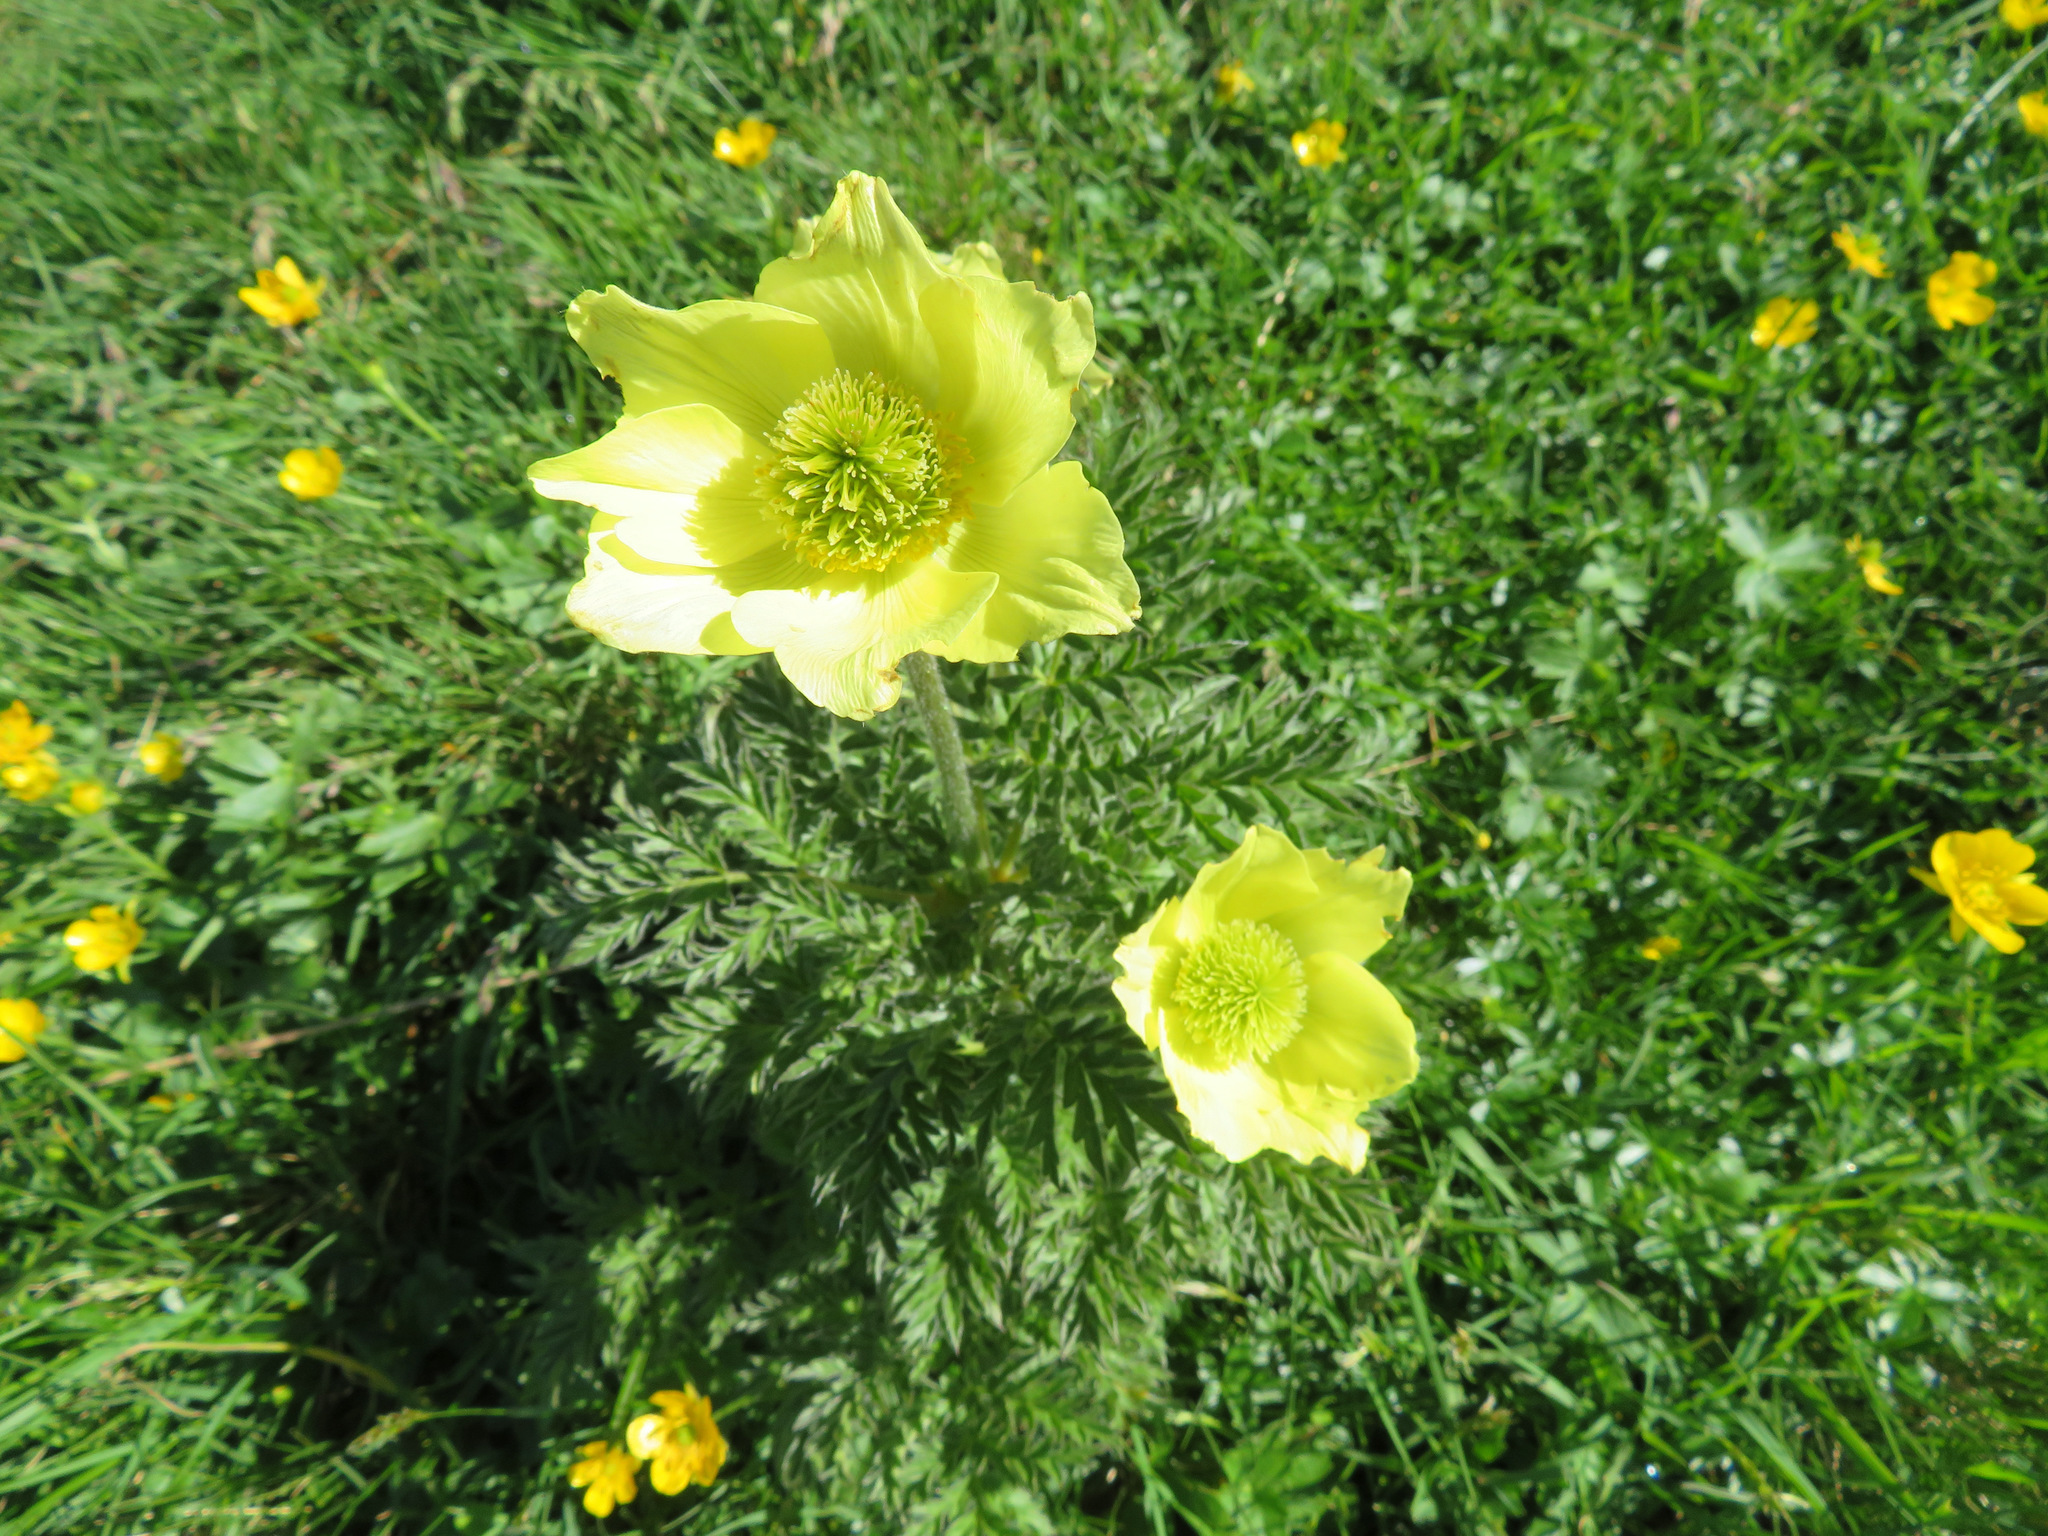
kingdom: Plantae
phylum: Tracheophyta
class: Magnoliopsida
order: Ranunculales
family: Ranunculaceae
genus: Pulsatilla
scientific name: Pulsatilla alpina
